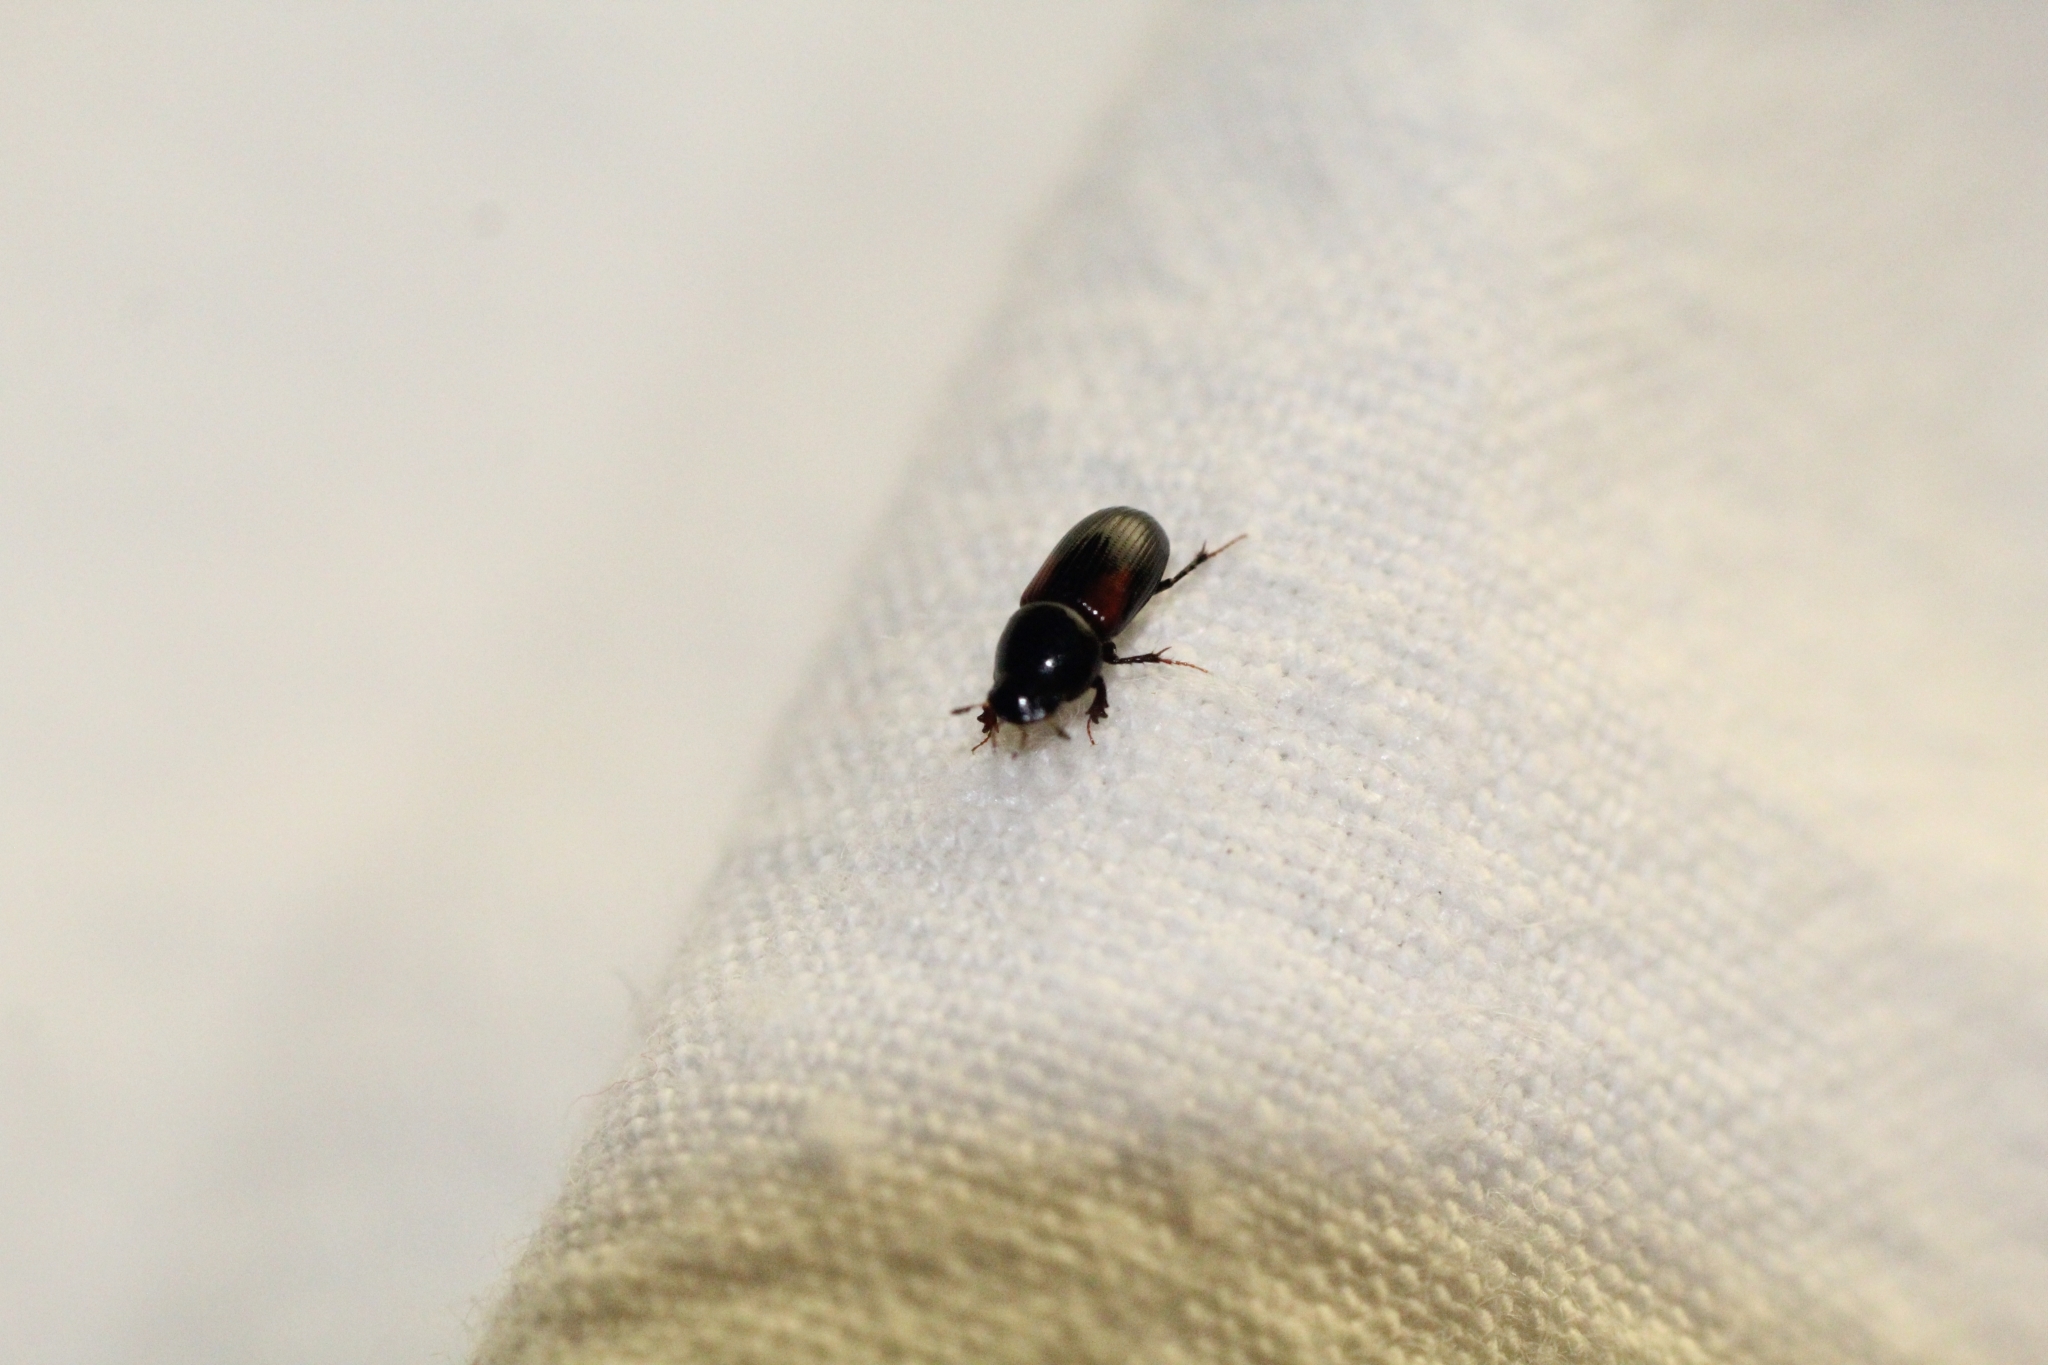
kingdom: Animalia
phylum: Arthropoda
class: Insecta
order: Coleoptera
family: Scarabaeidae
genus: Nialus
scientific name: Nialus varians
